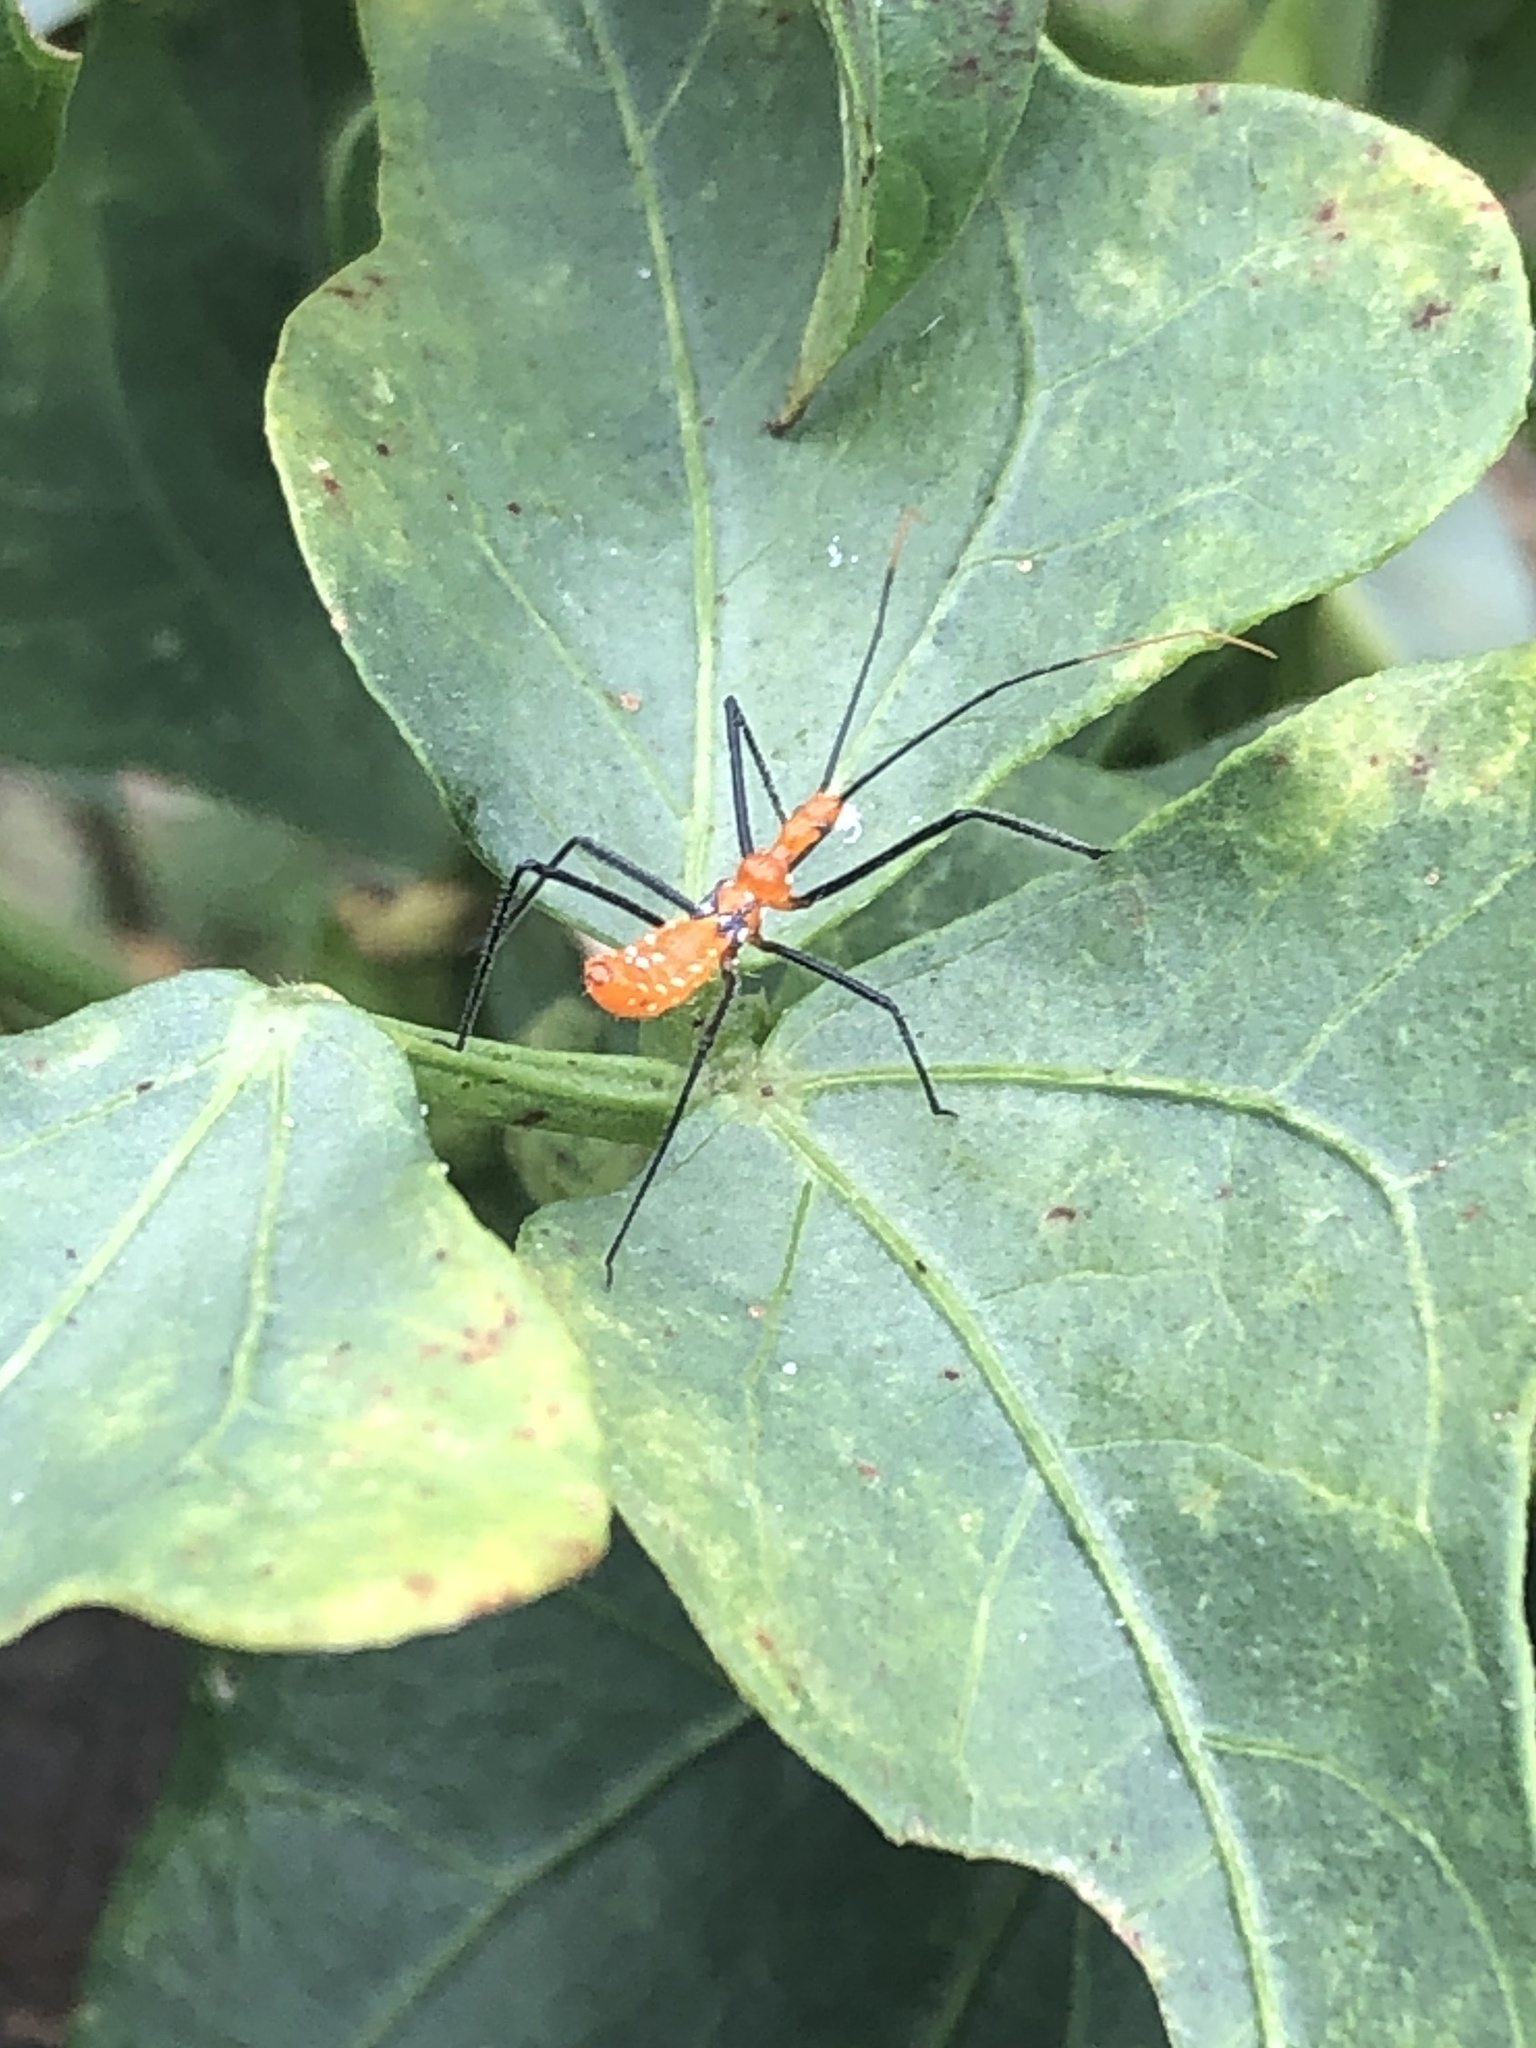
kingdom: Animalia
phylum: Arthropoda
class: Insecta
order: Hemiptera
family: Reduviidae
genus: Zelus
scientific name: Zelus longipes
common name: Milkweed assassin bug
